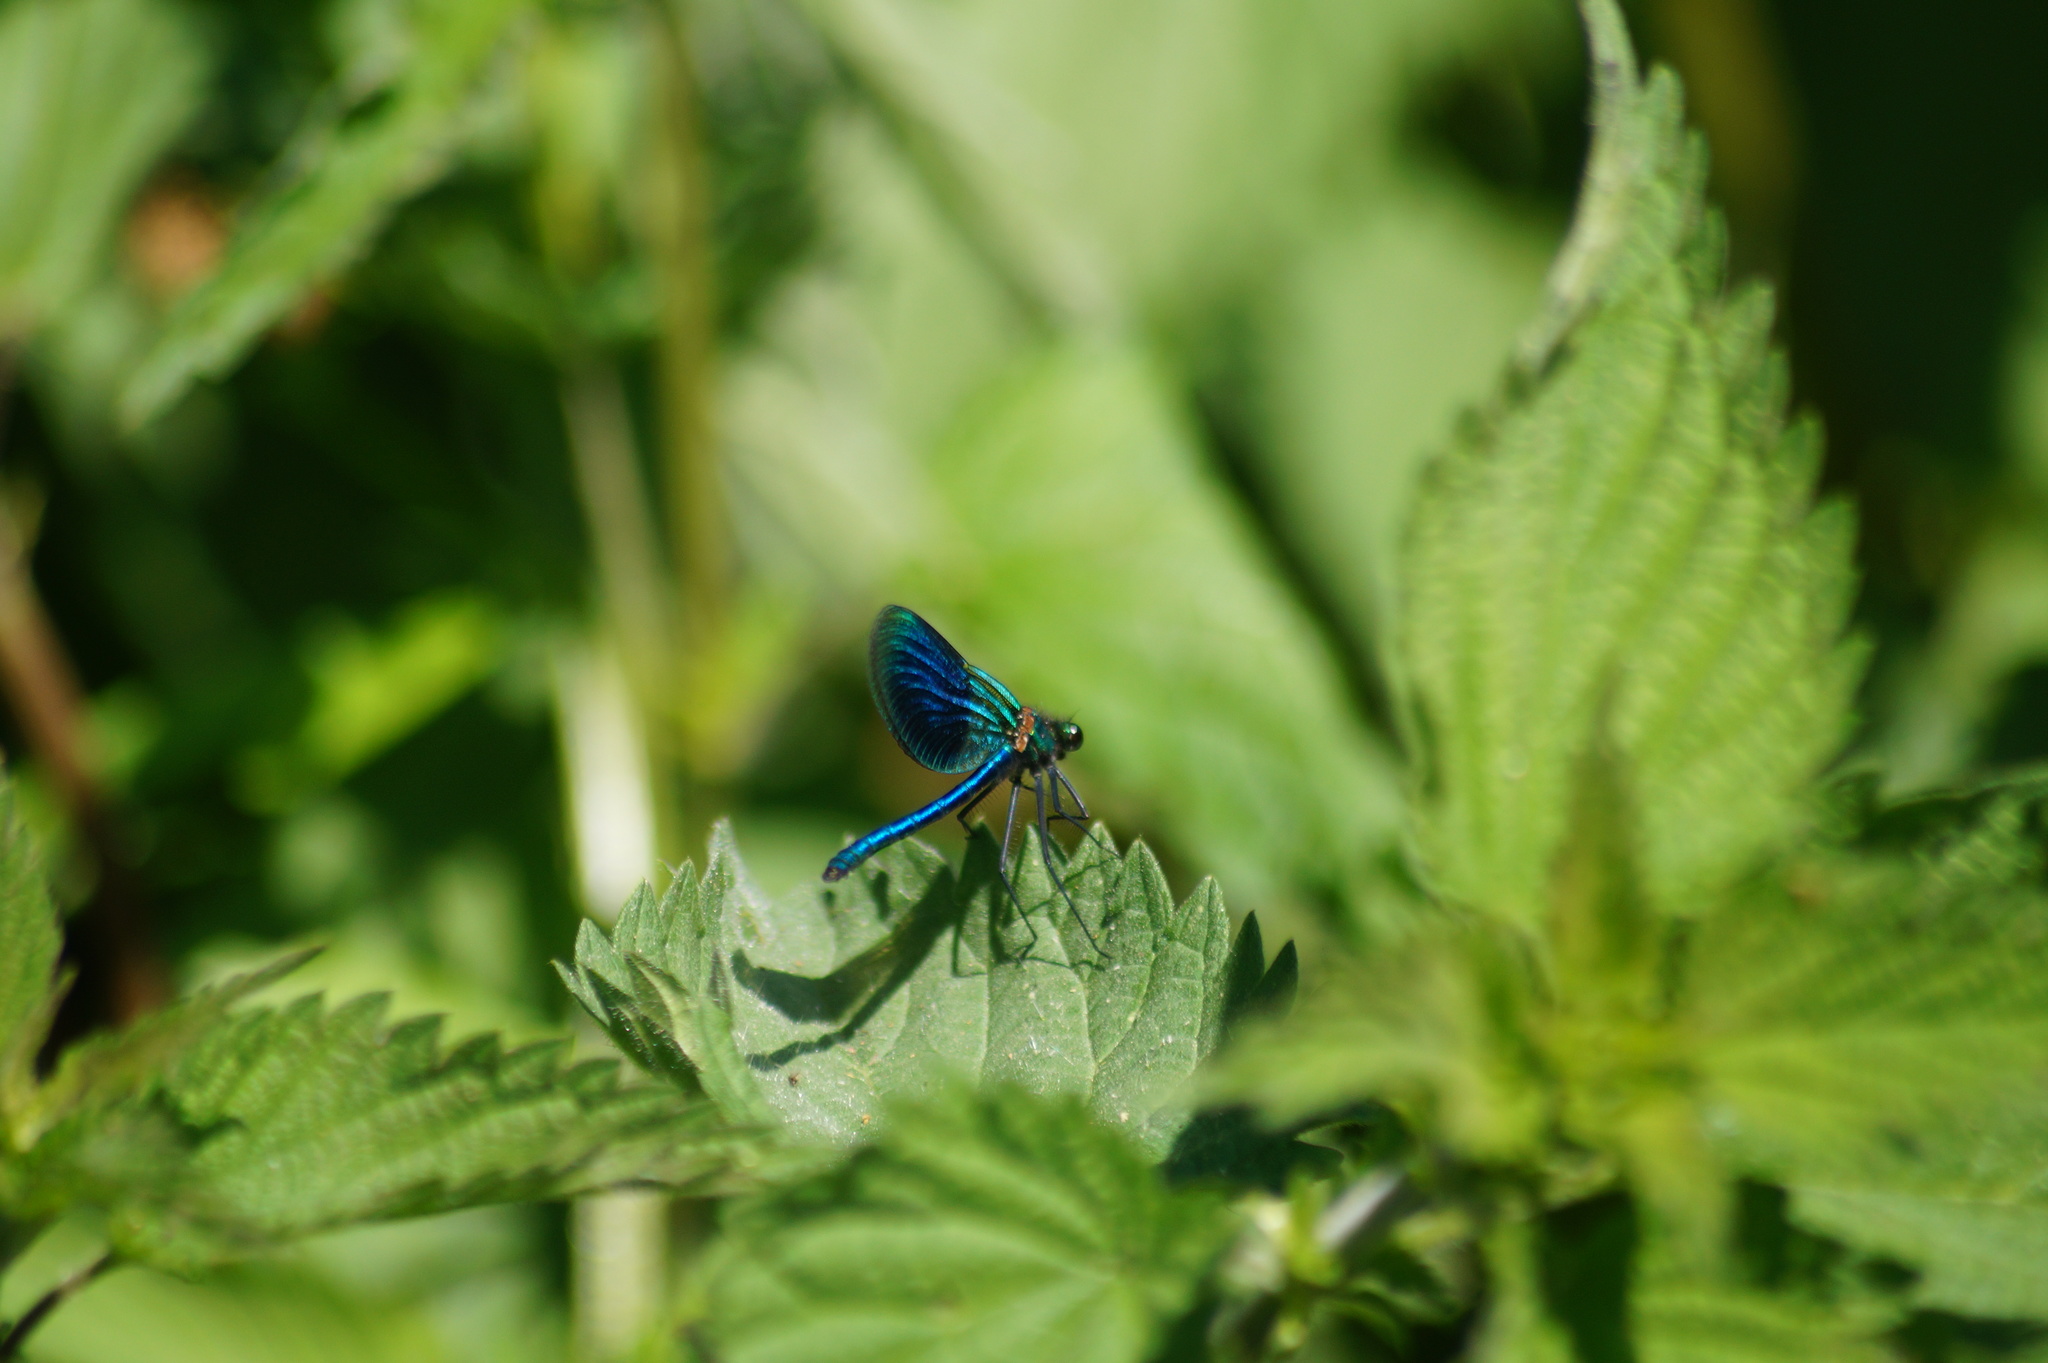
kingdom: Animalia
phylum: Arthropoda
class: Insecta
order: Odonata
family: Calopterygidae
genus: Calopteryx
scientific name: Calopteryx splendens
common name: Banded demoiselle
